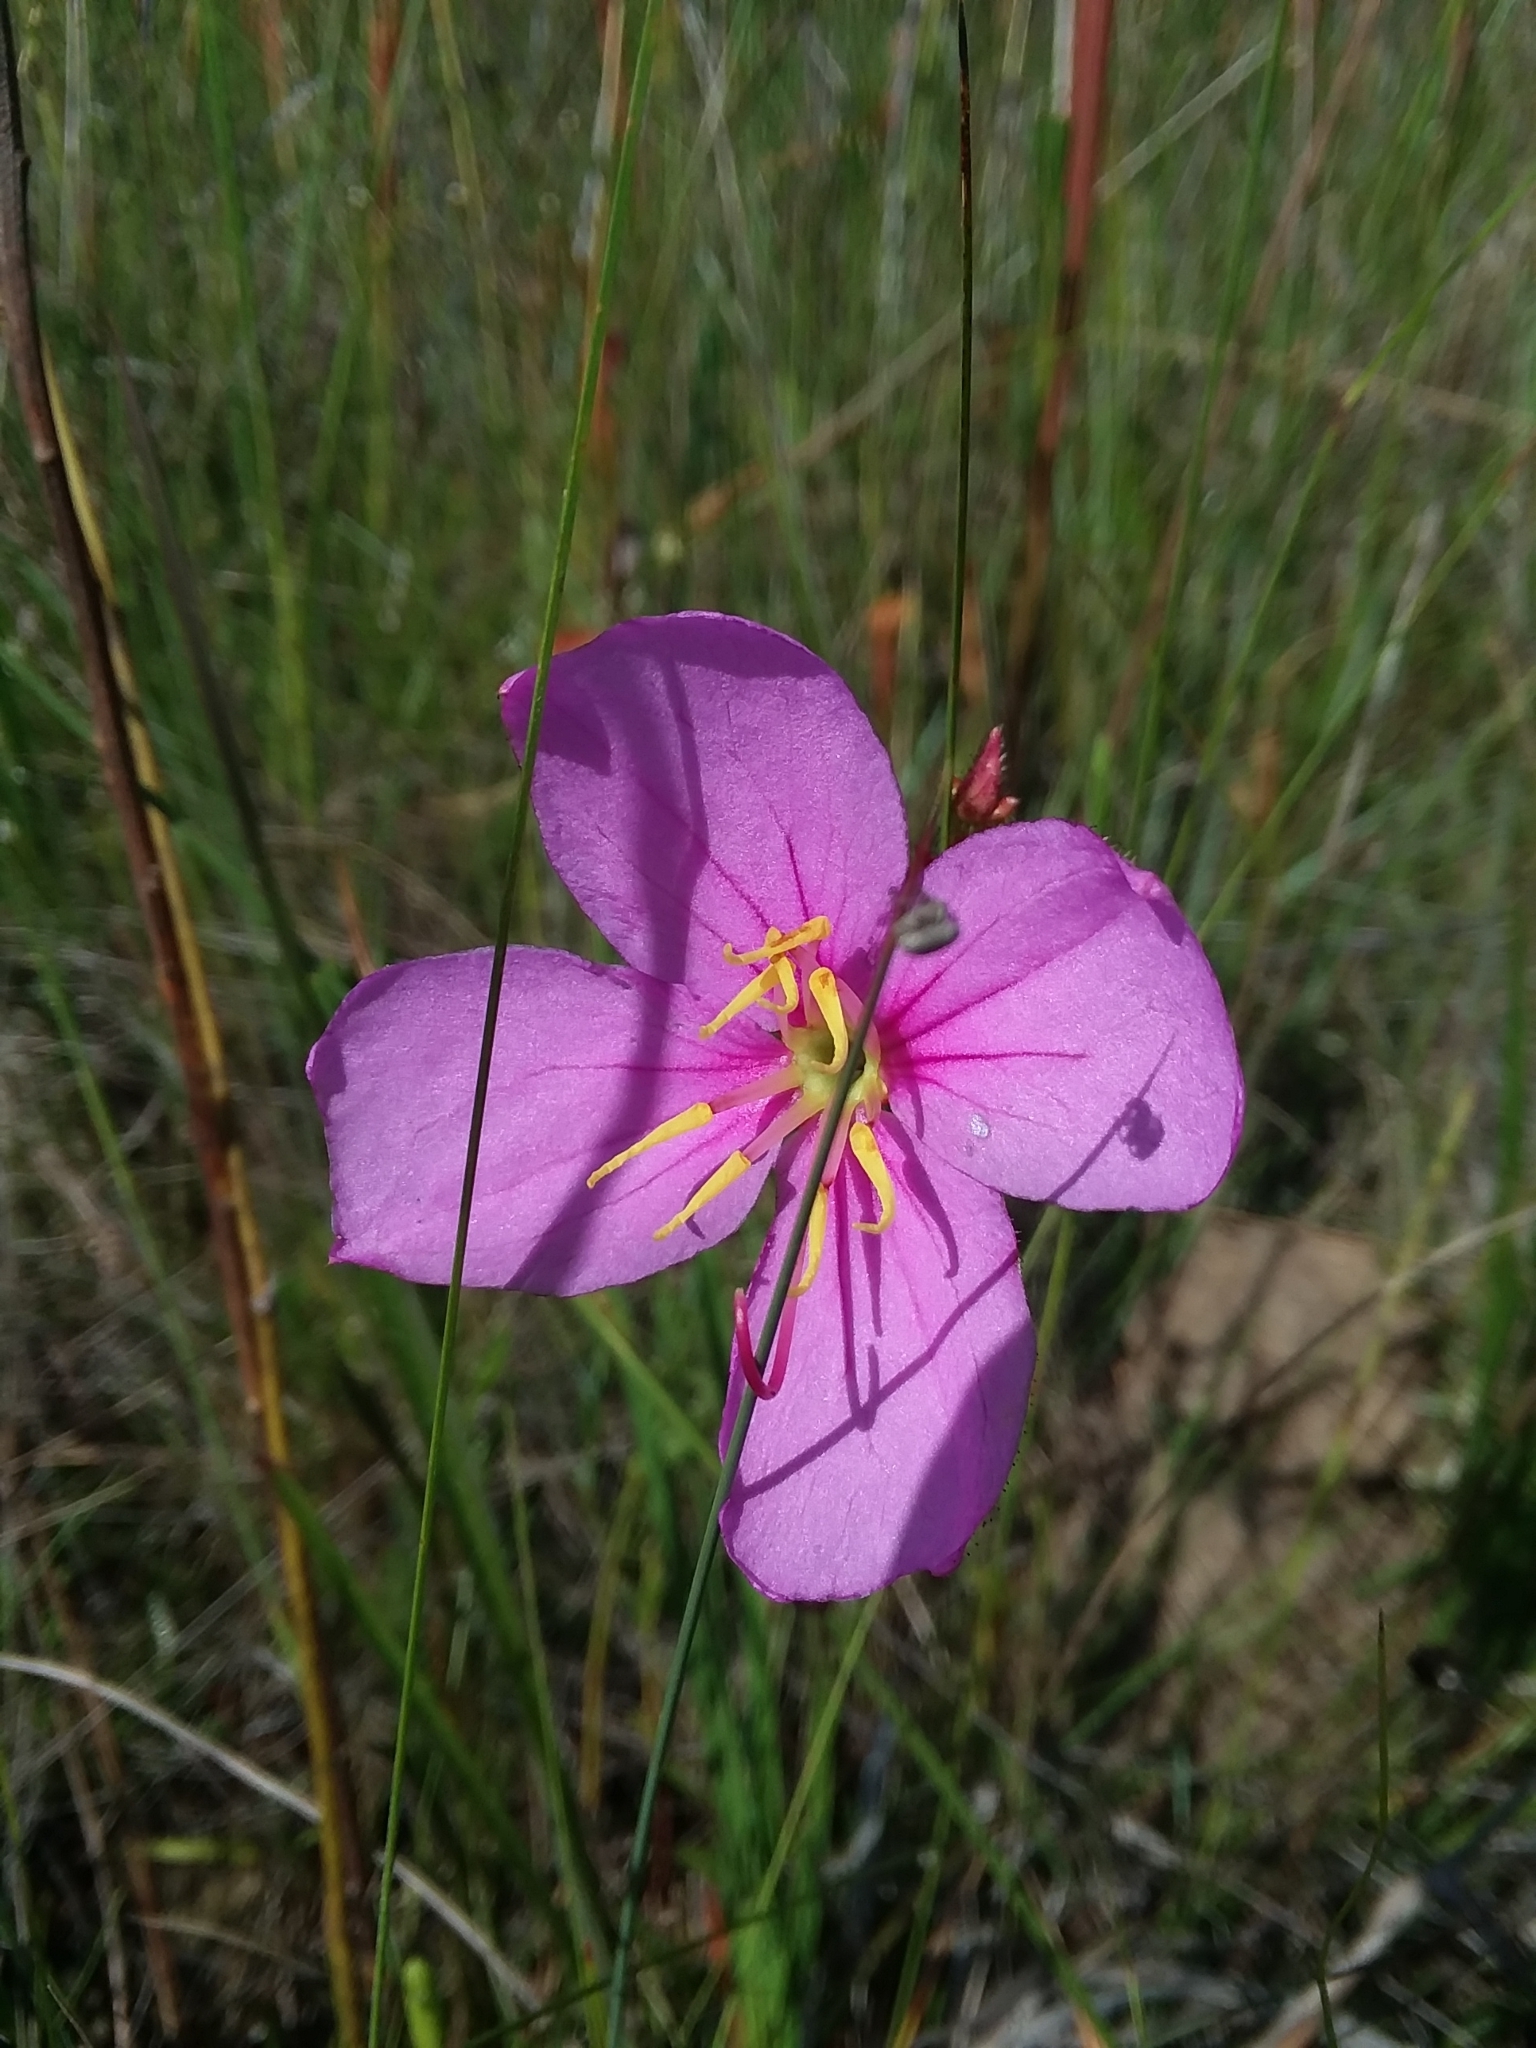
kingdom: Plantae
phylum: Tracheophyta
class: Magnoliopsida
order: Myrtales
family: Melastomataceae
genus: Rhexia
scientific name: Rhexia alifanus
